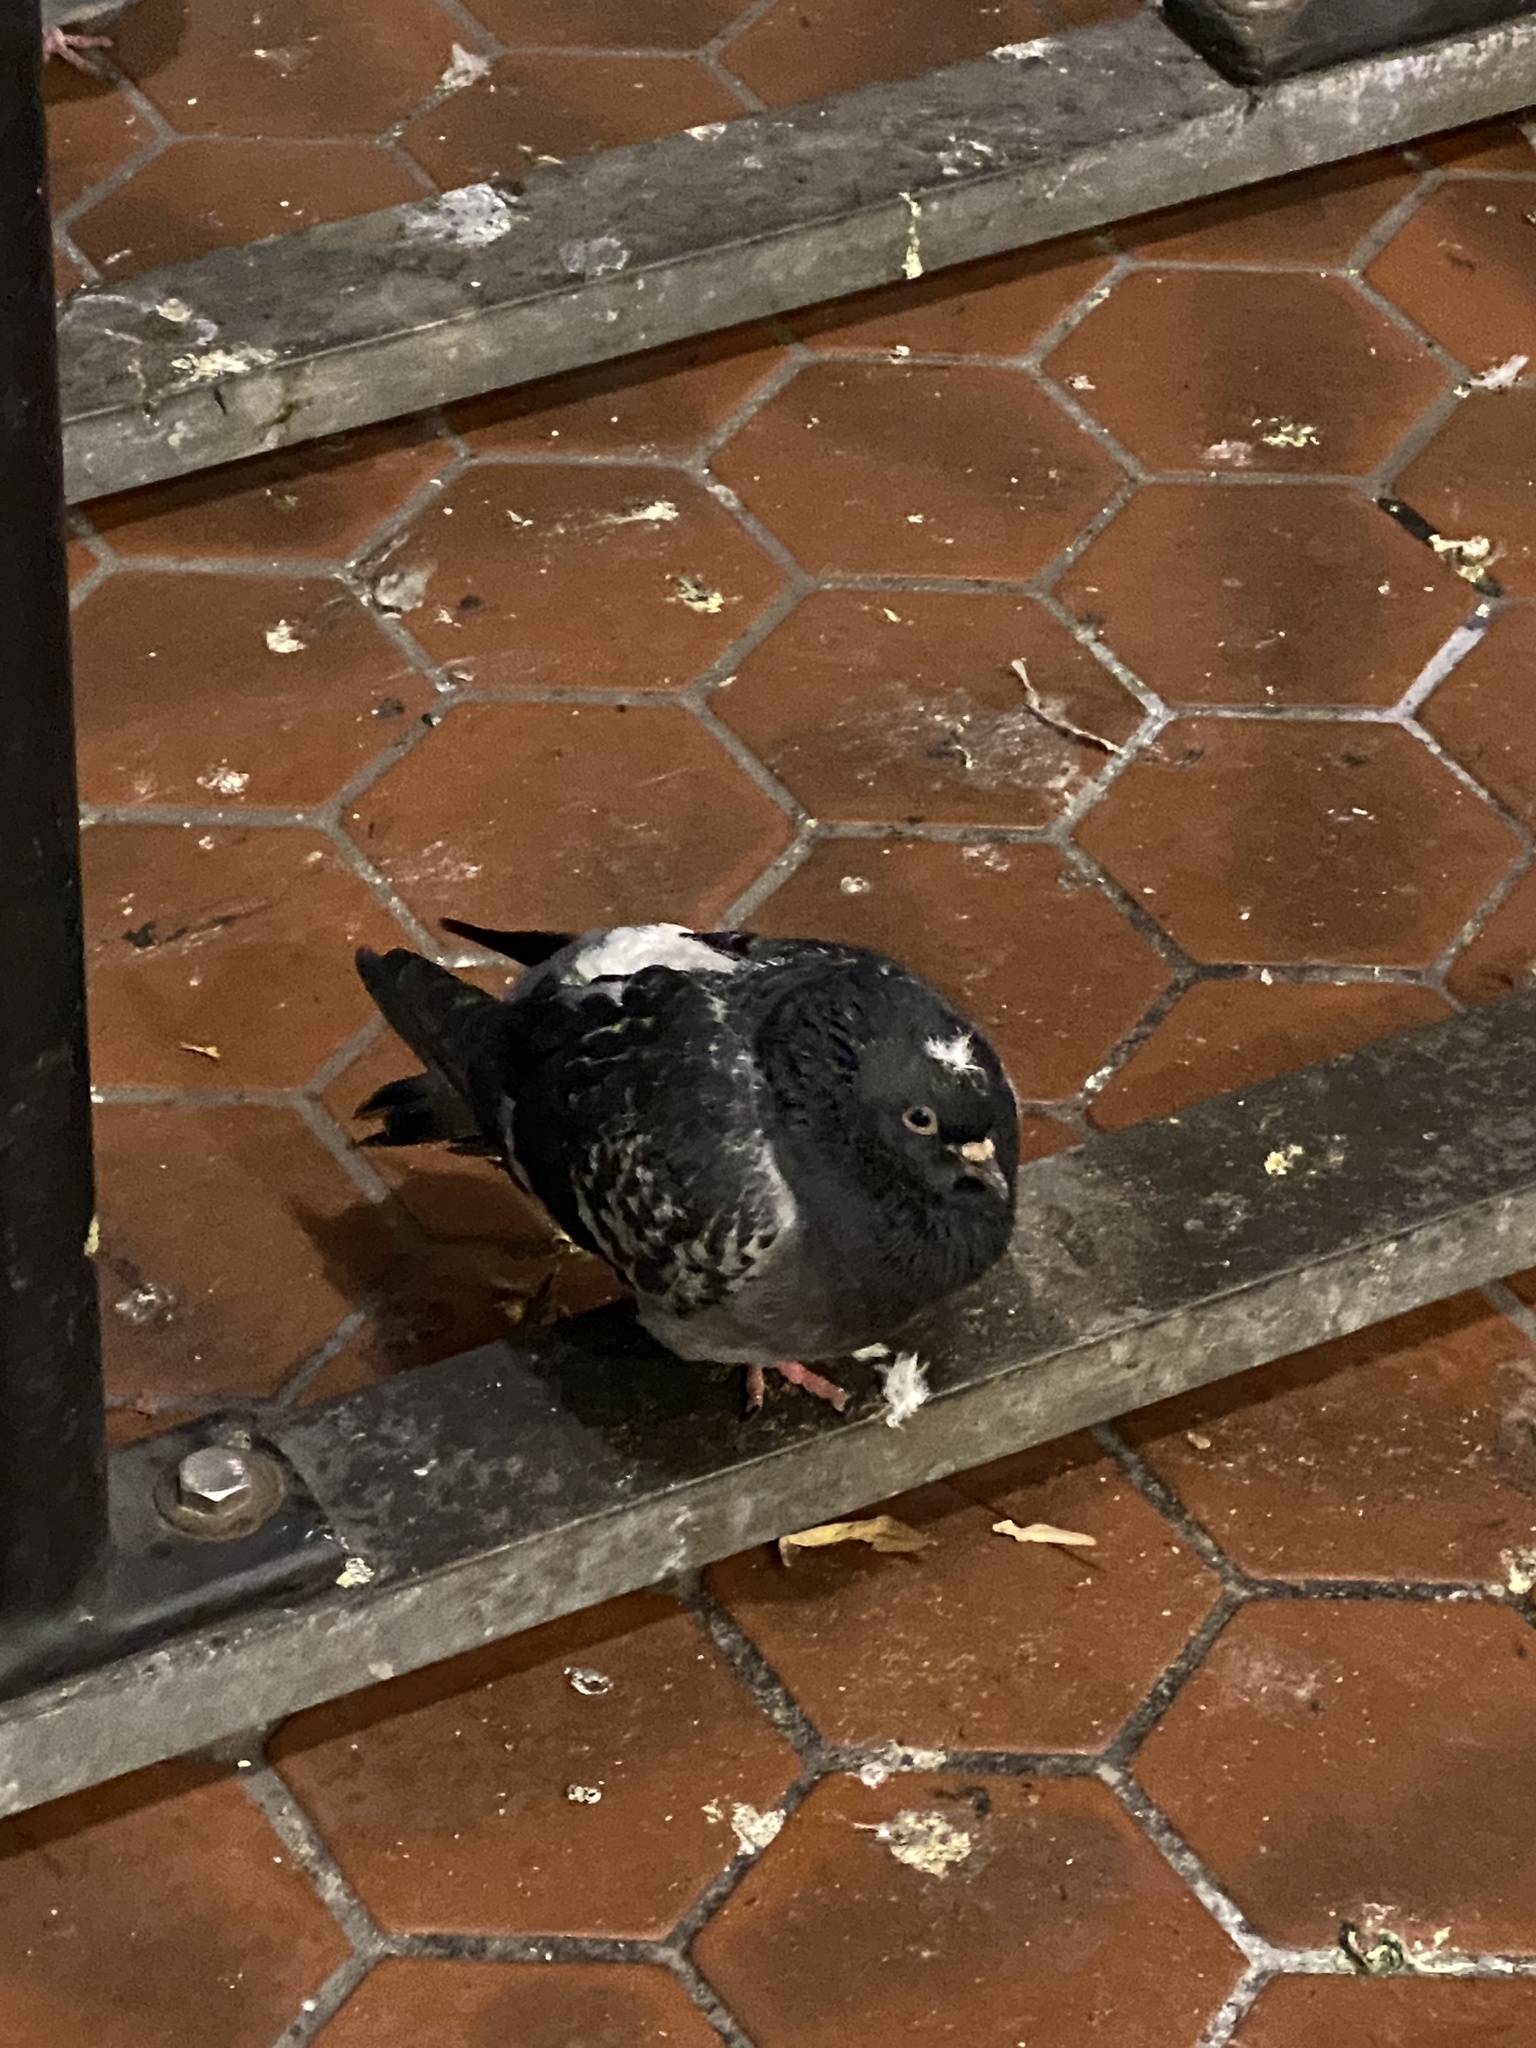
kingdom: Animalia
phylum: Chordata
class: Aves
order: Columbiformes
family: Columbidae
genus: Columba
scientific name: Columba livia
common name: Rock pigeon
